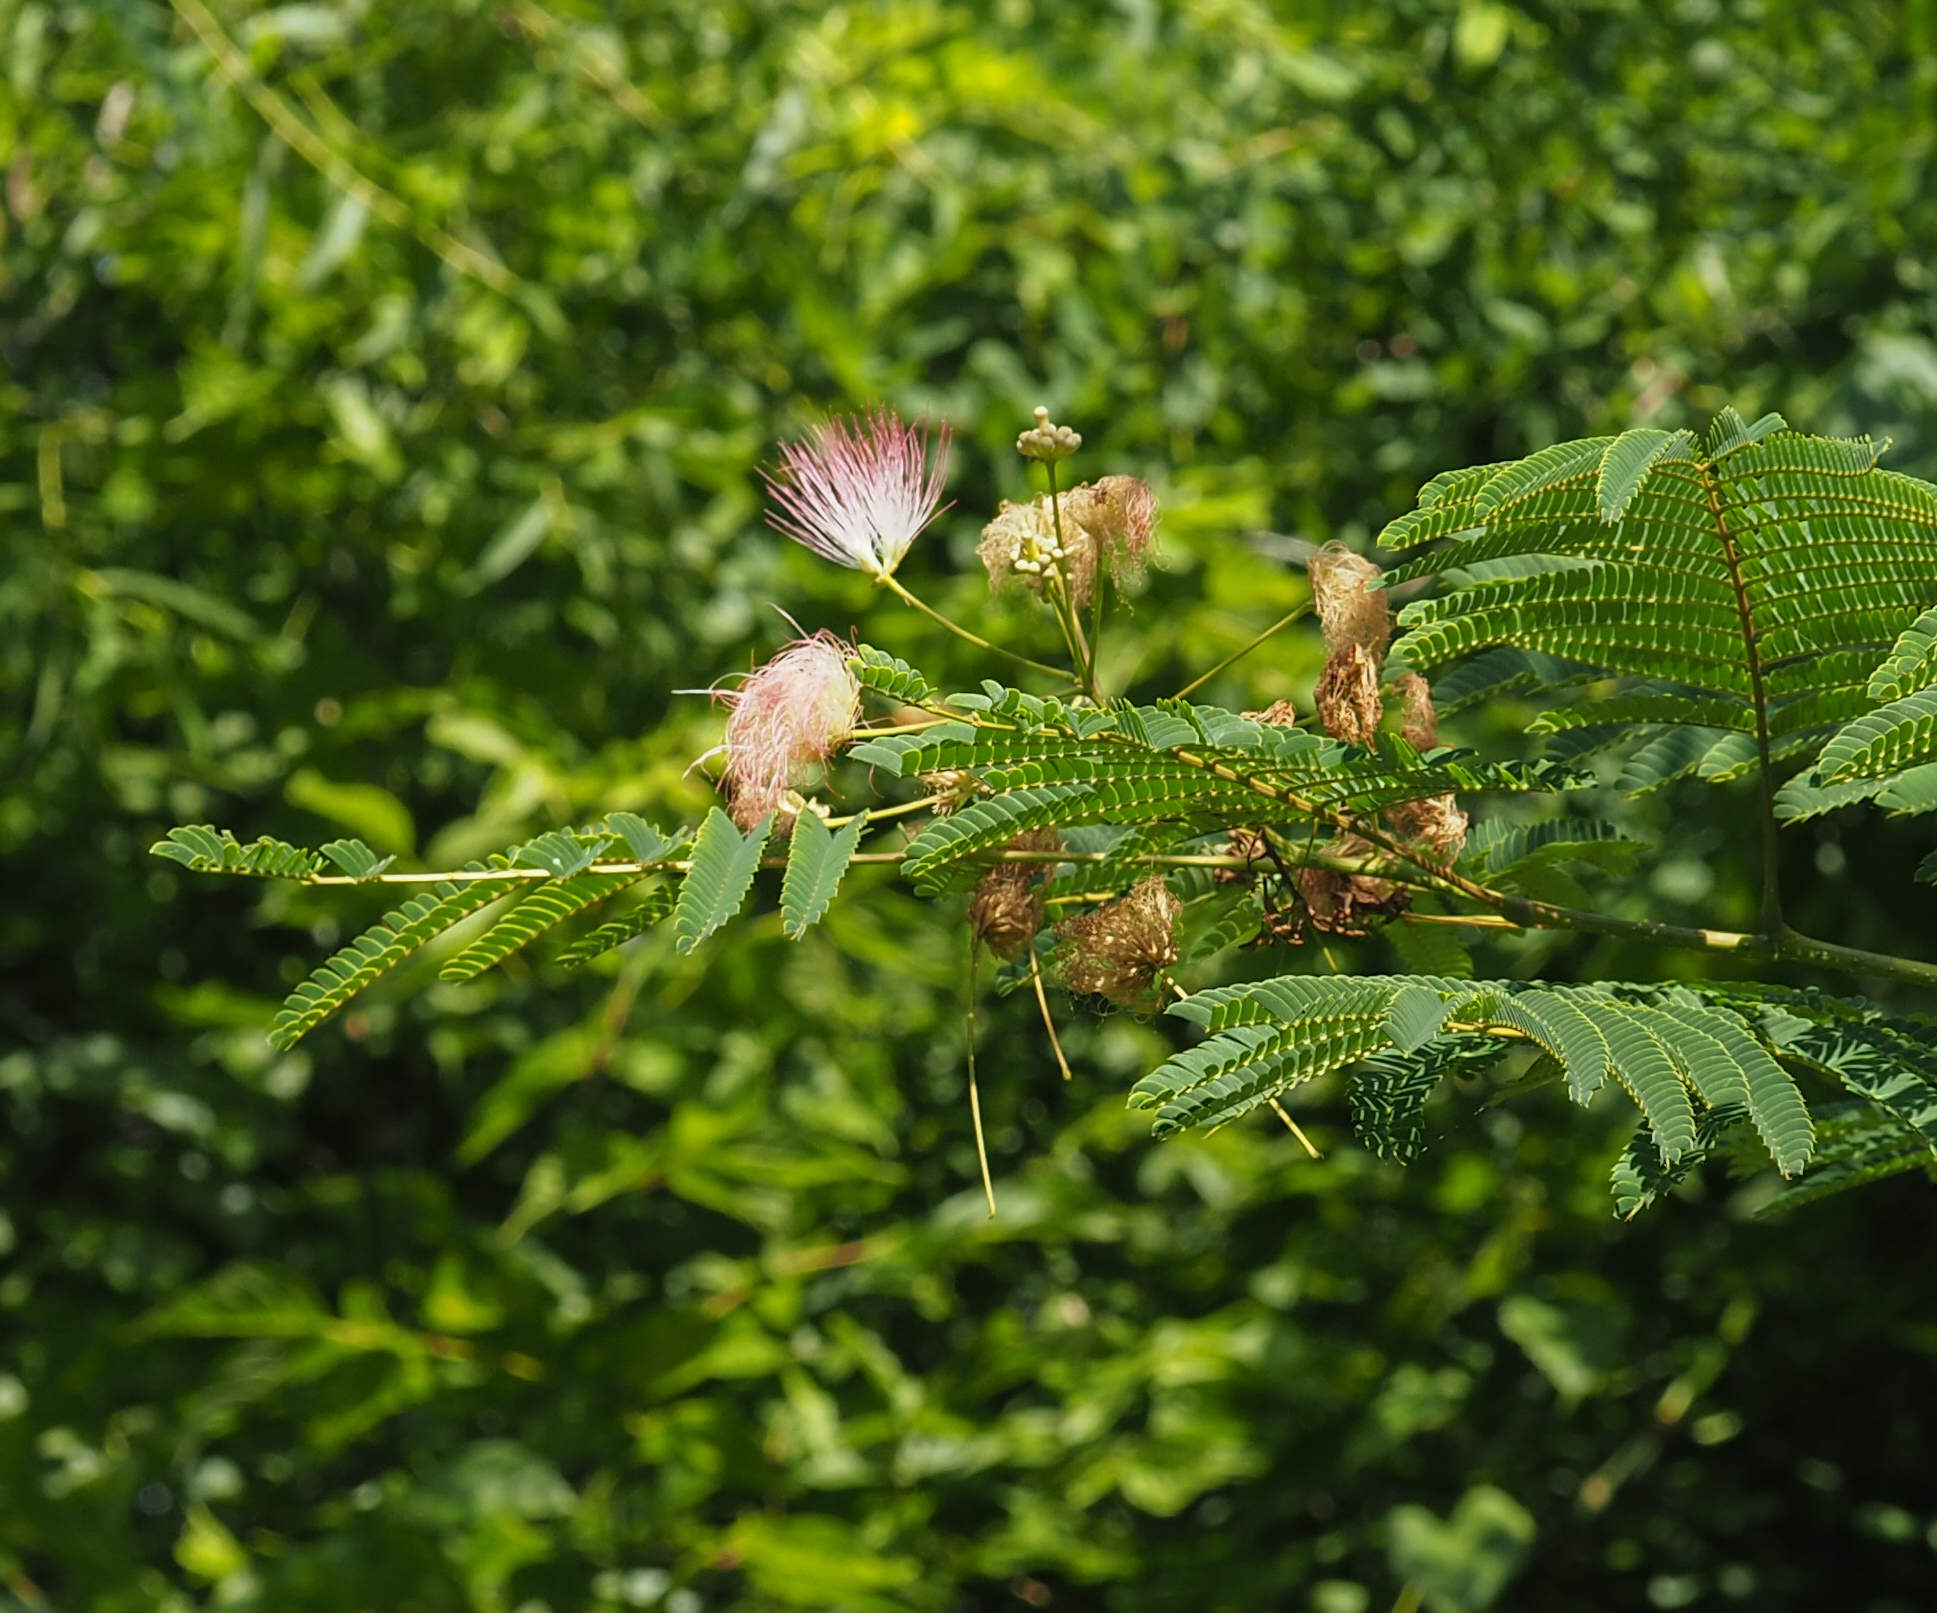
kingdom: Plantae
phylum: Tracheophyta
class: Magnoliopsida
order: Fabales
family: Fabaceae
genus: Albizia
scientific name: Albizia julibrissin
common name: Silktree
